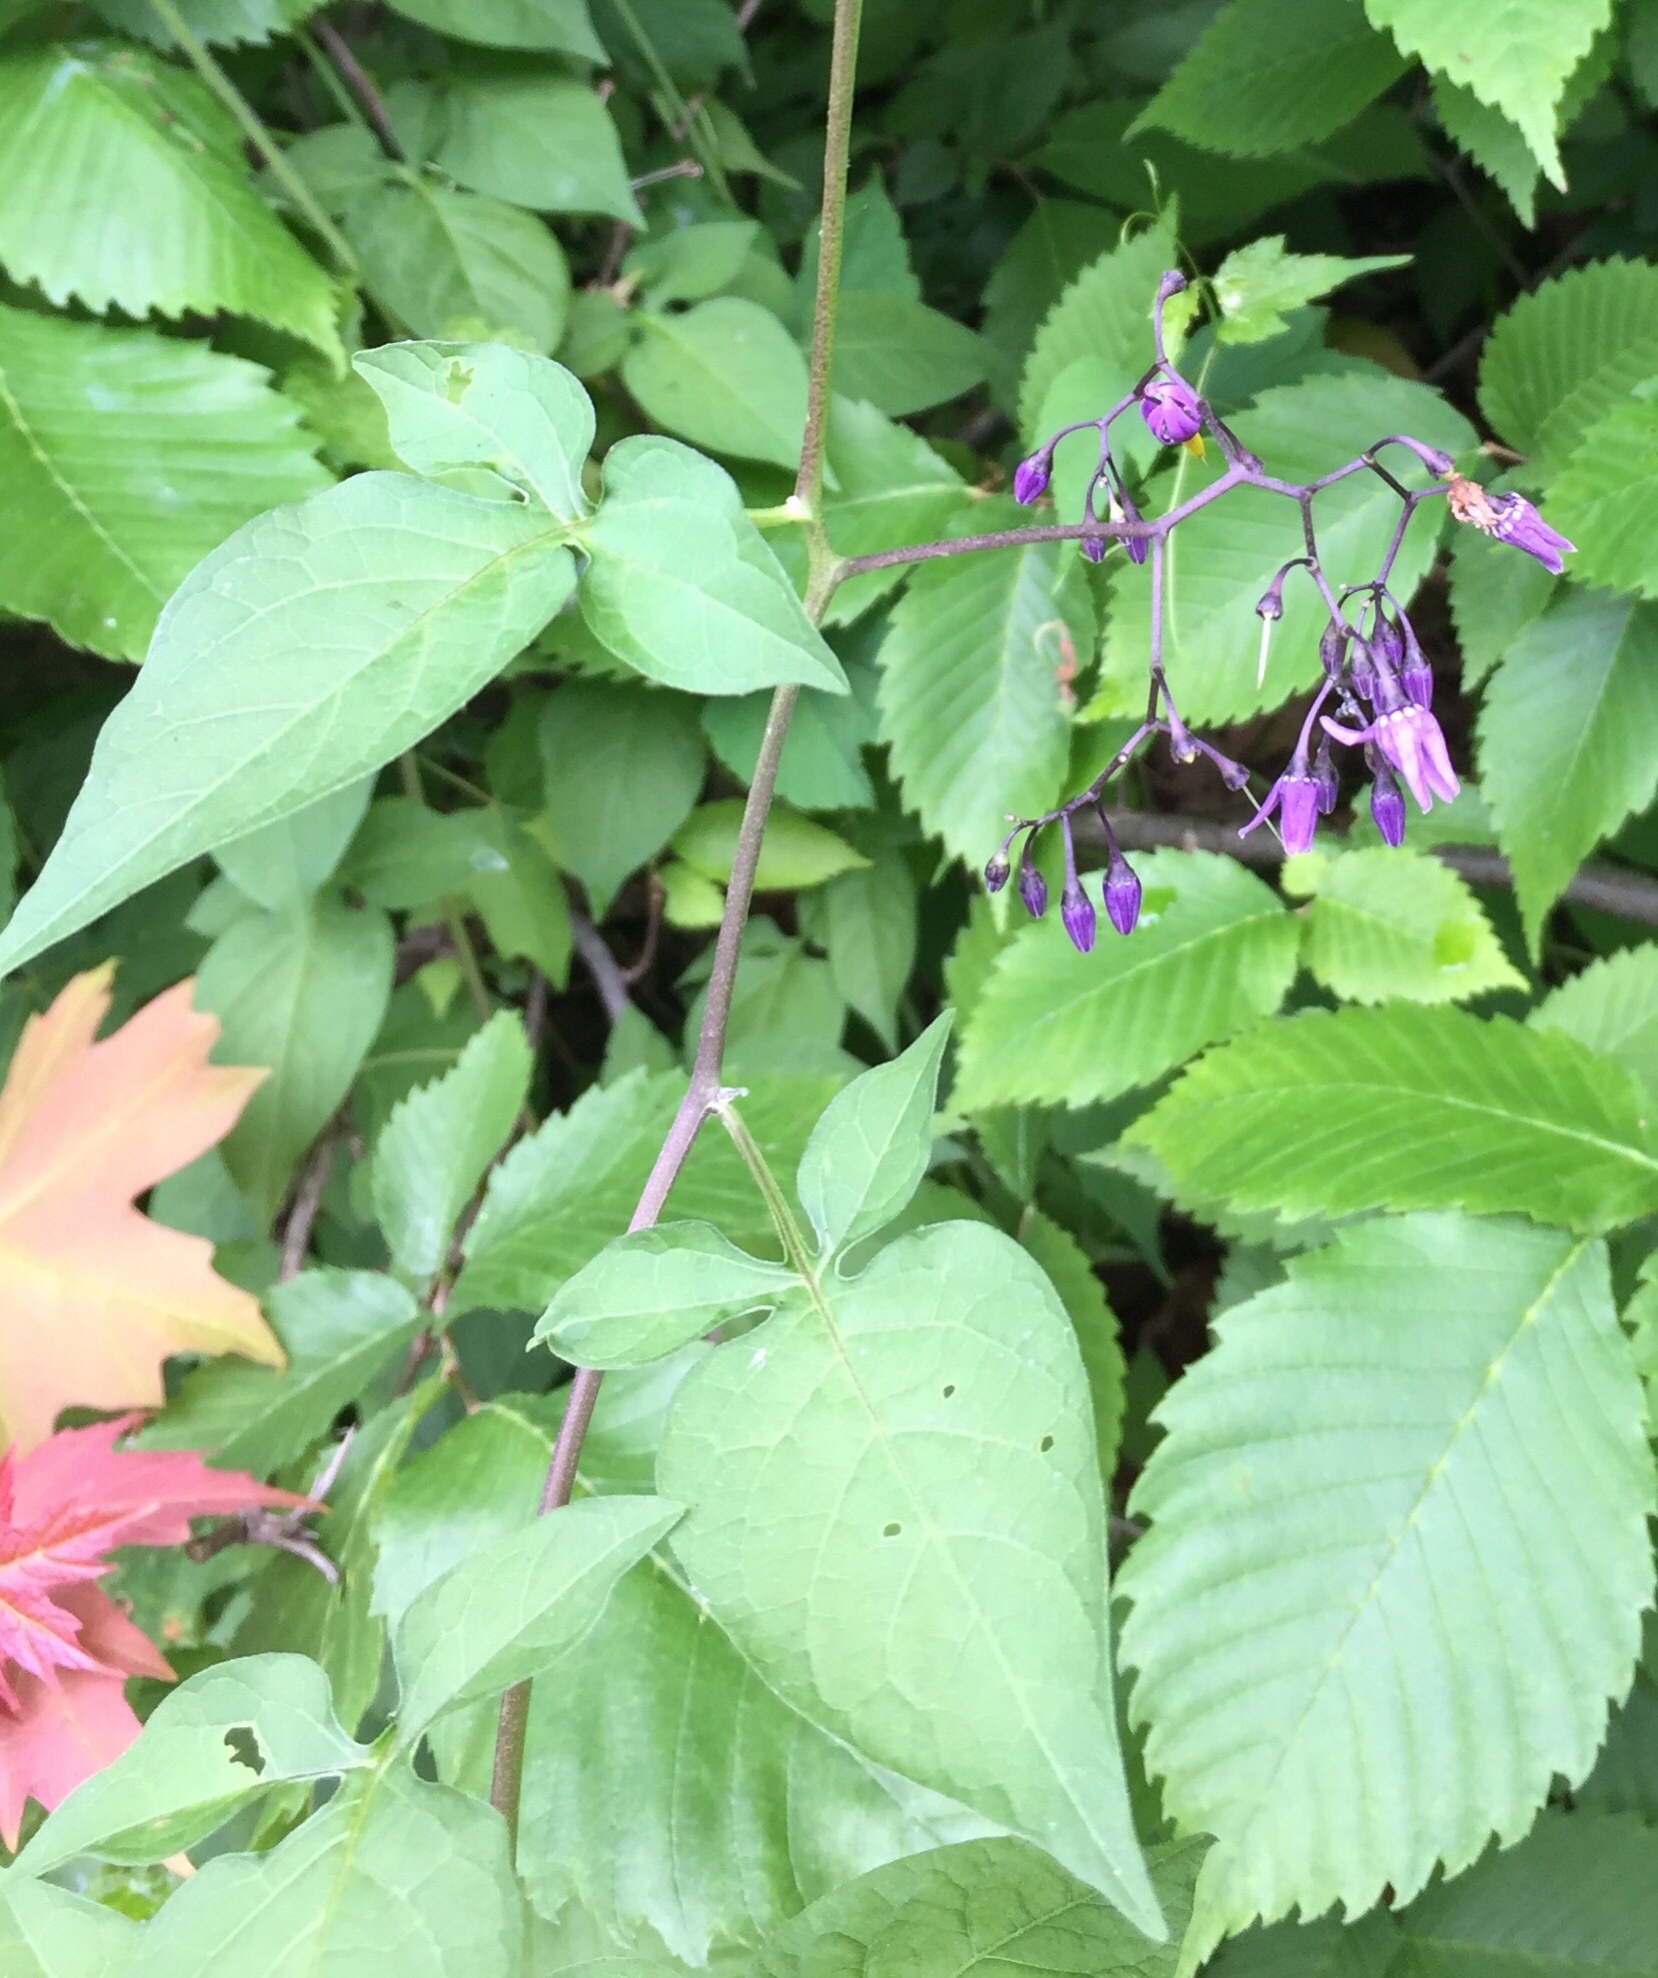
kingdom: Plantae
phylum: Tracheophyta
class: Magnoliopsida
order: Solanales
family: Solanaceae
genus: Solanum
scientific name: Solanum dulcamara
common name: Climbing nightshade
